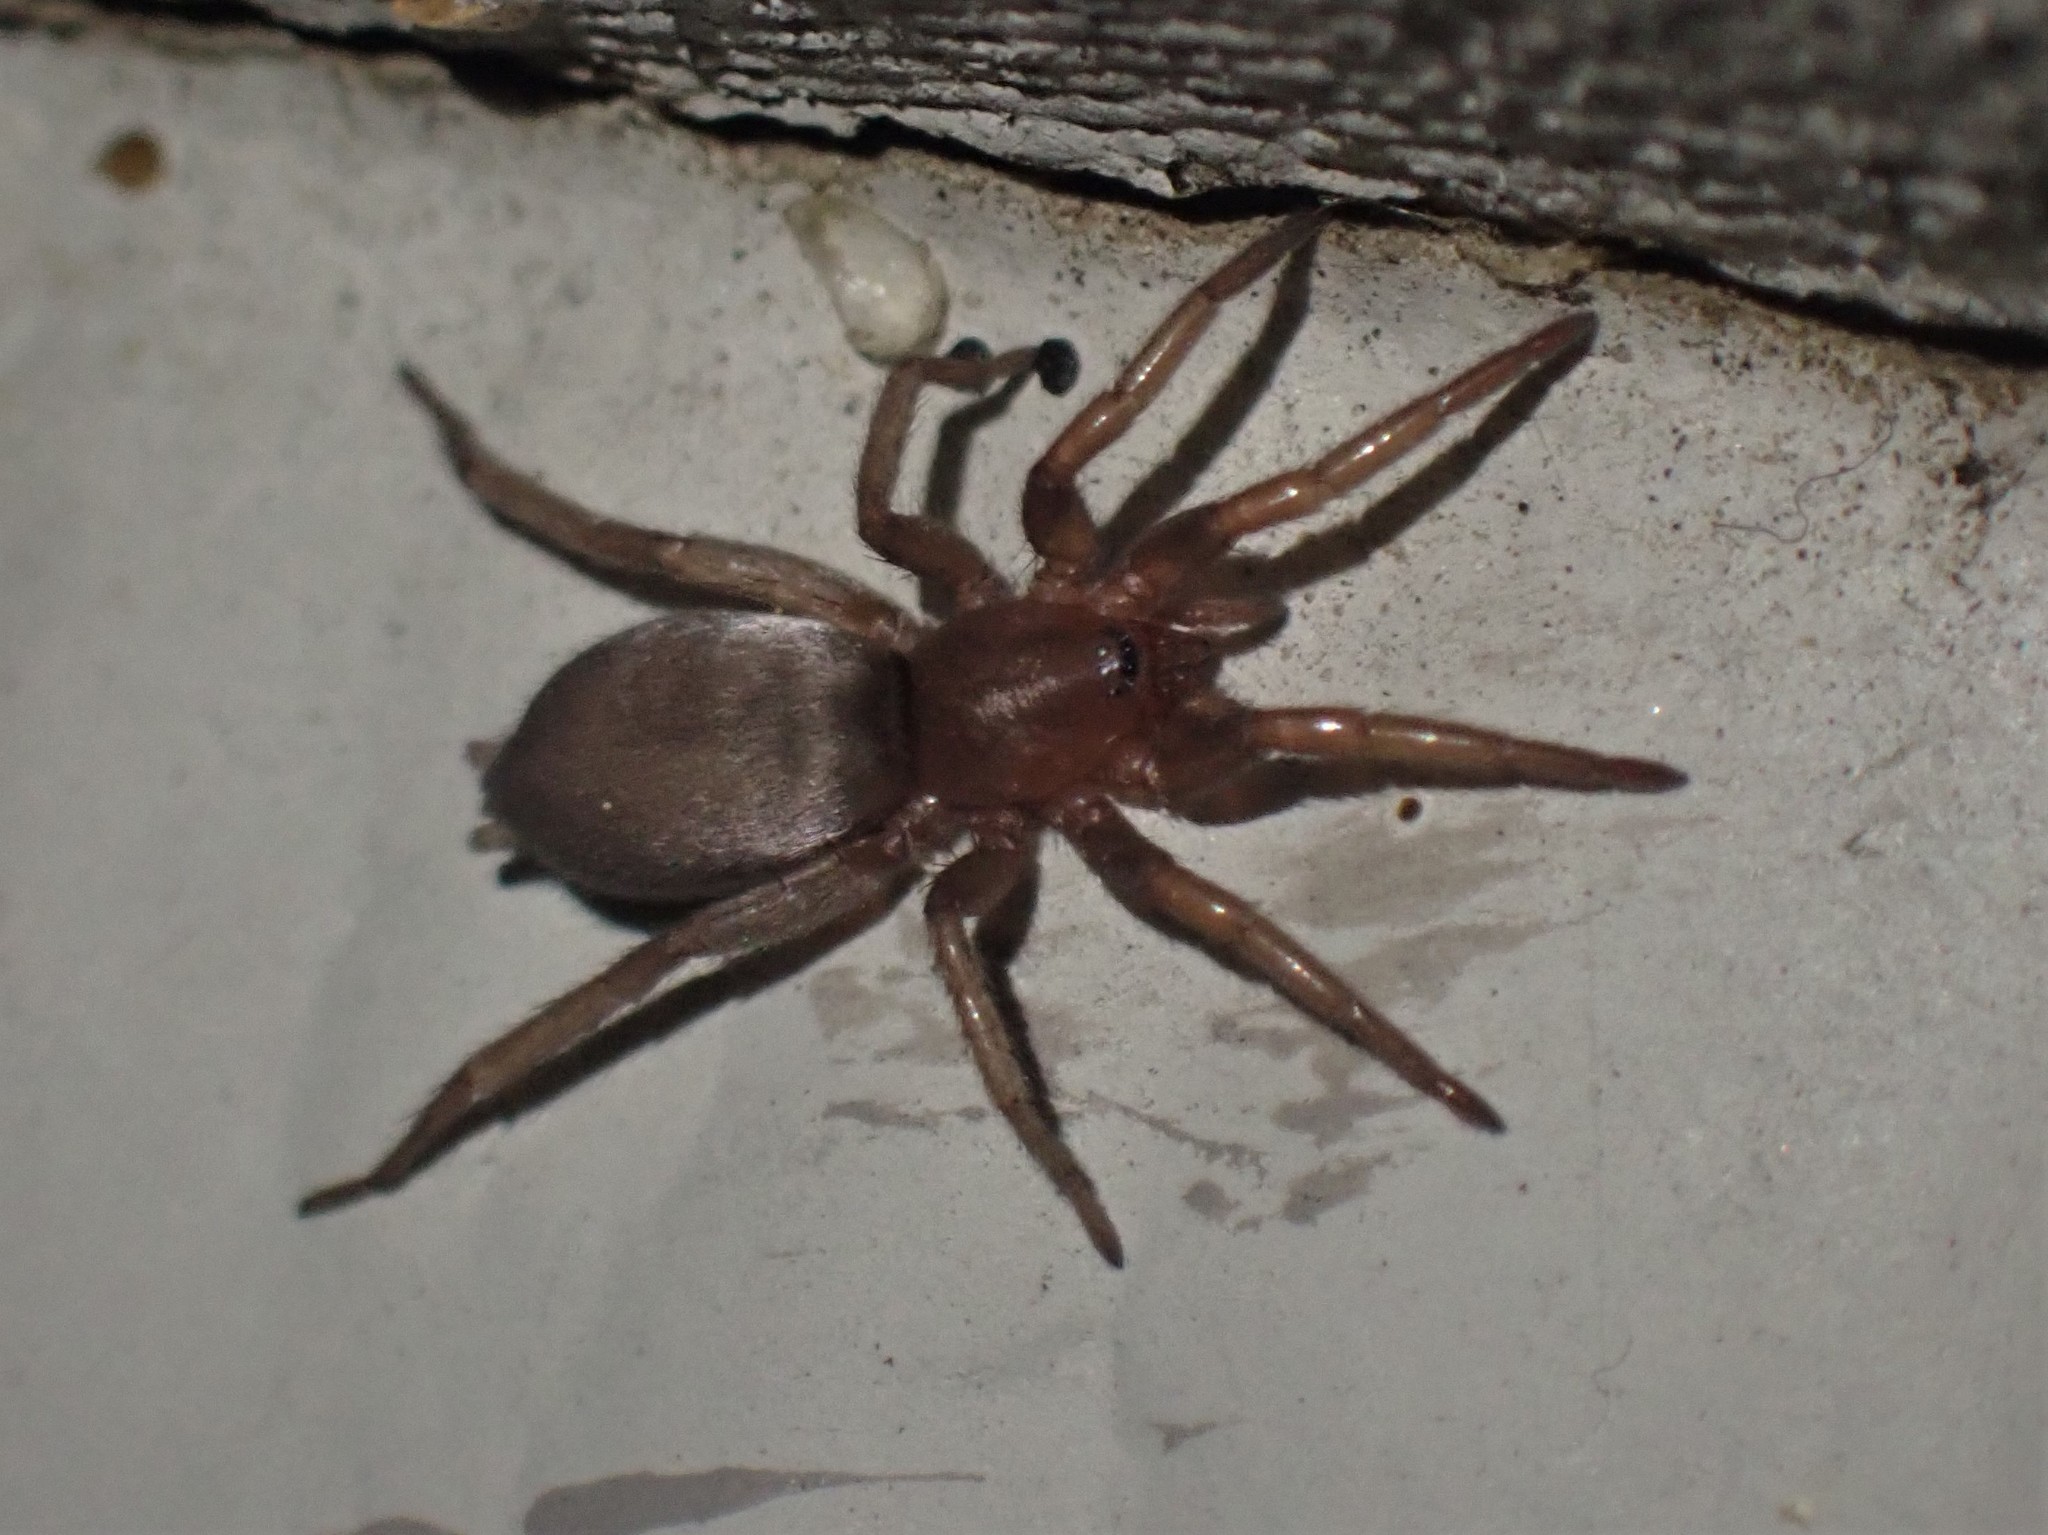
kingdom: Animalia
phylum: Arthropoda
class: Arachnida
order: Araneae
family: Gnaphosidae
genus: Scotophaeus
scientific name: Scotophaeus blackwalli
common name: Mouse spider
